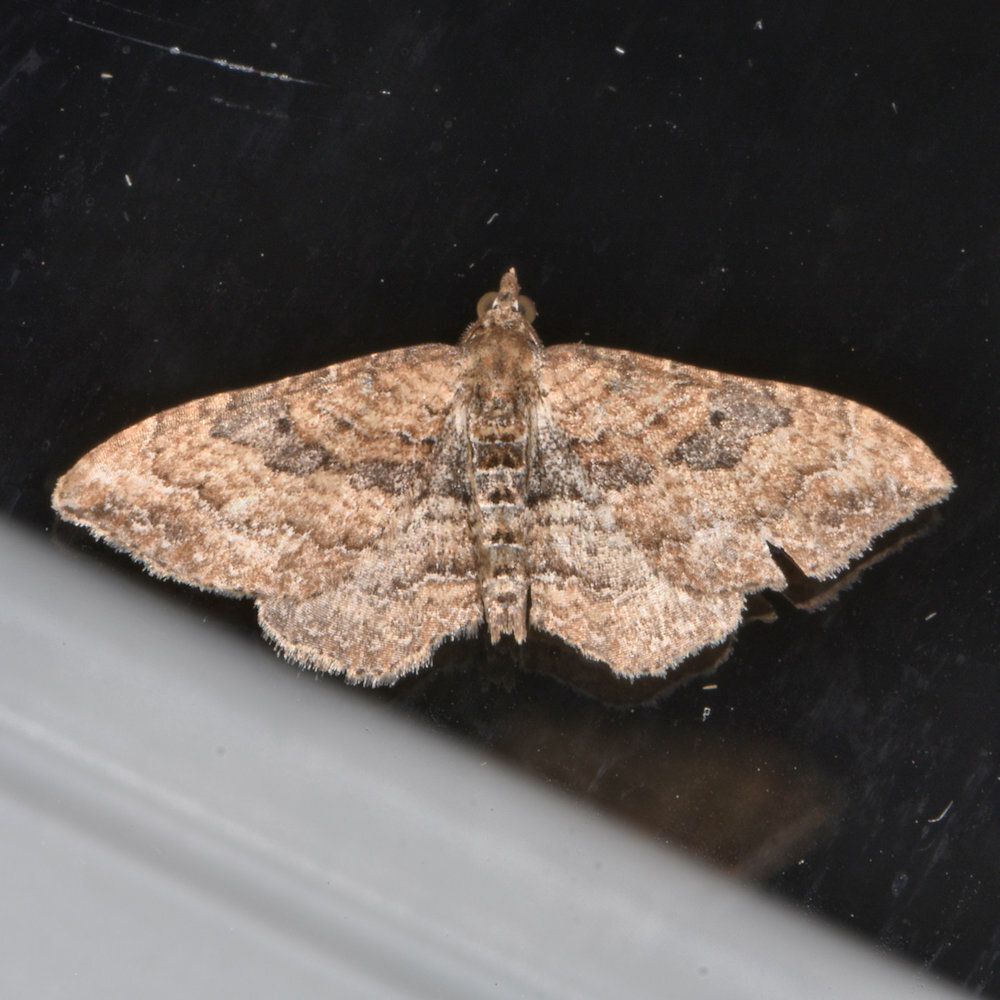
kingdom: Animalia
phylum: Arthropoda
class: Insecta
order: Lepidoptera
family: Geometridae
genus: Orthonama
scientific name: Orthonama obstipata
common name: The gem
